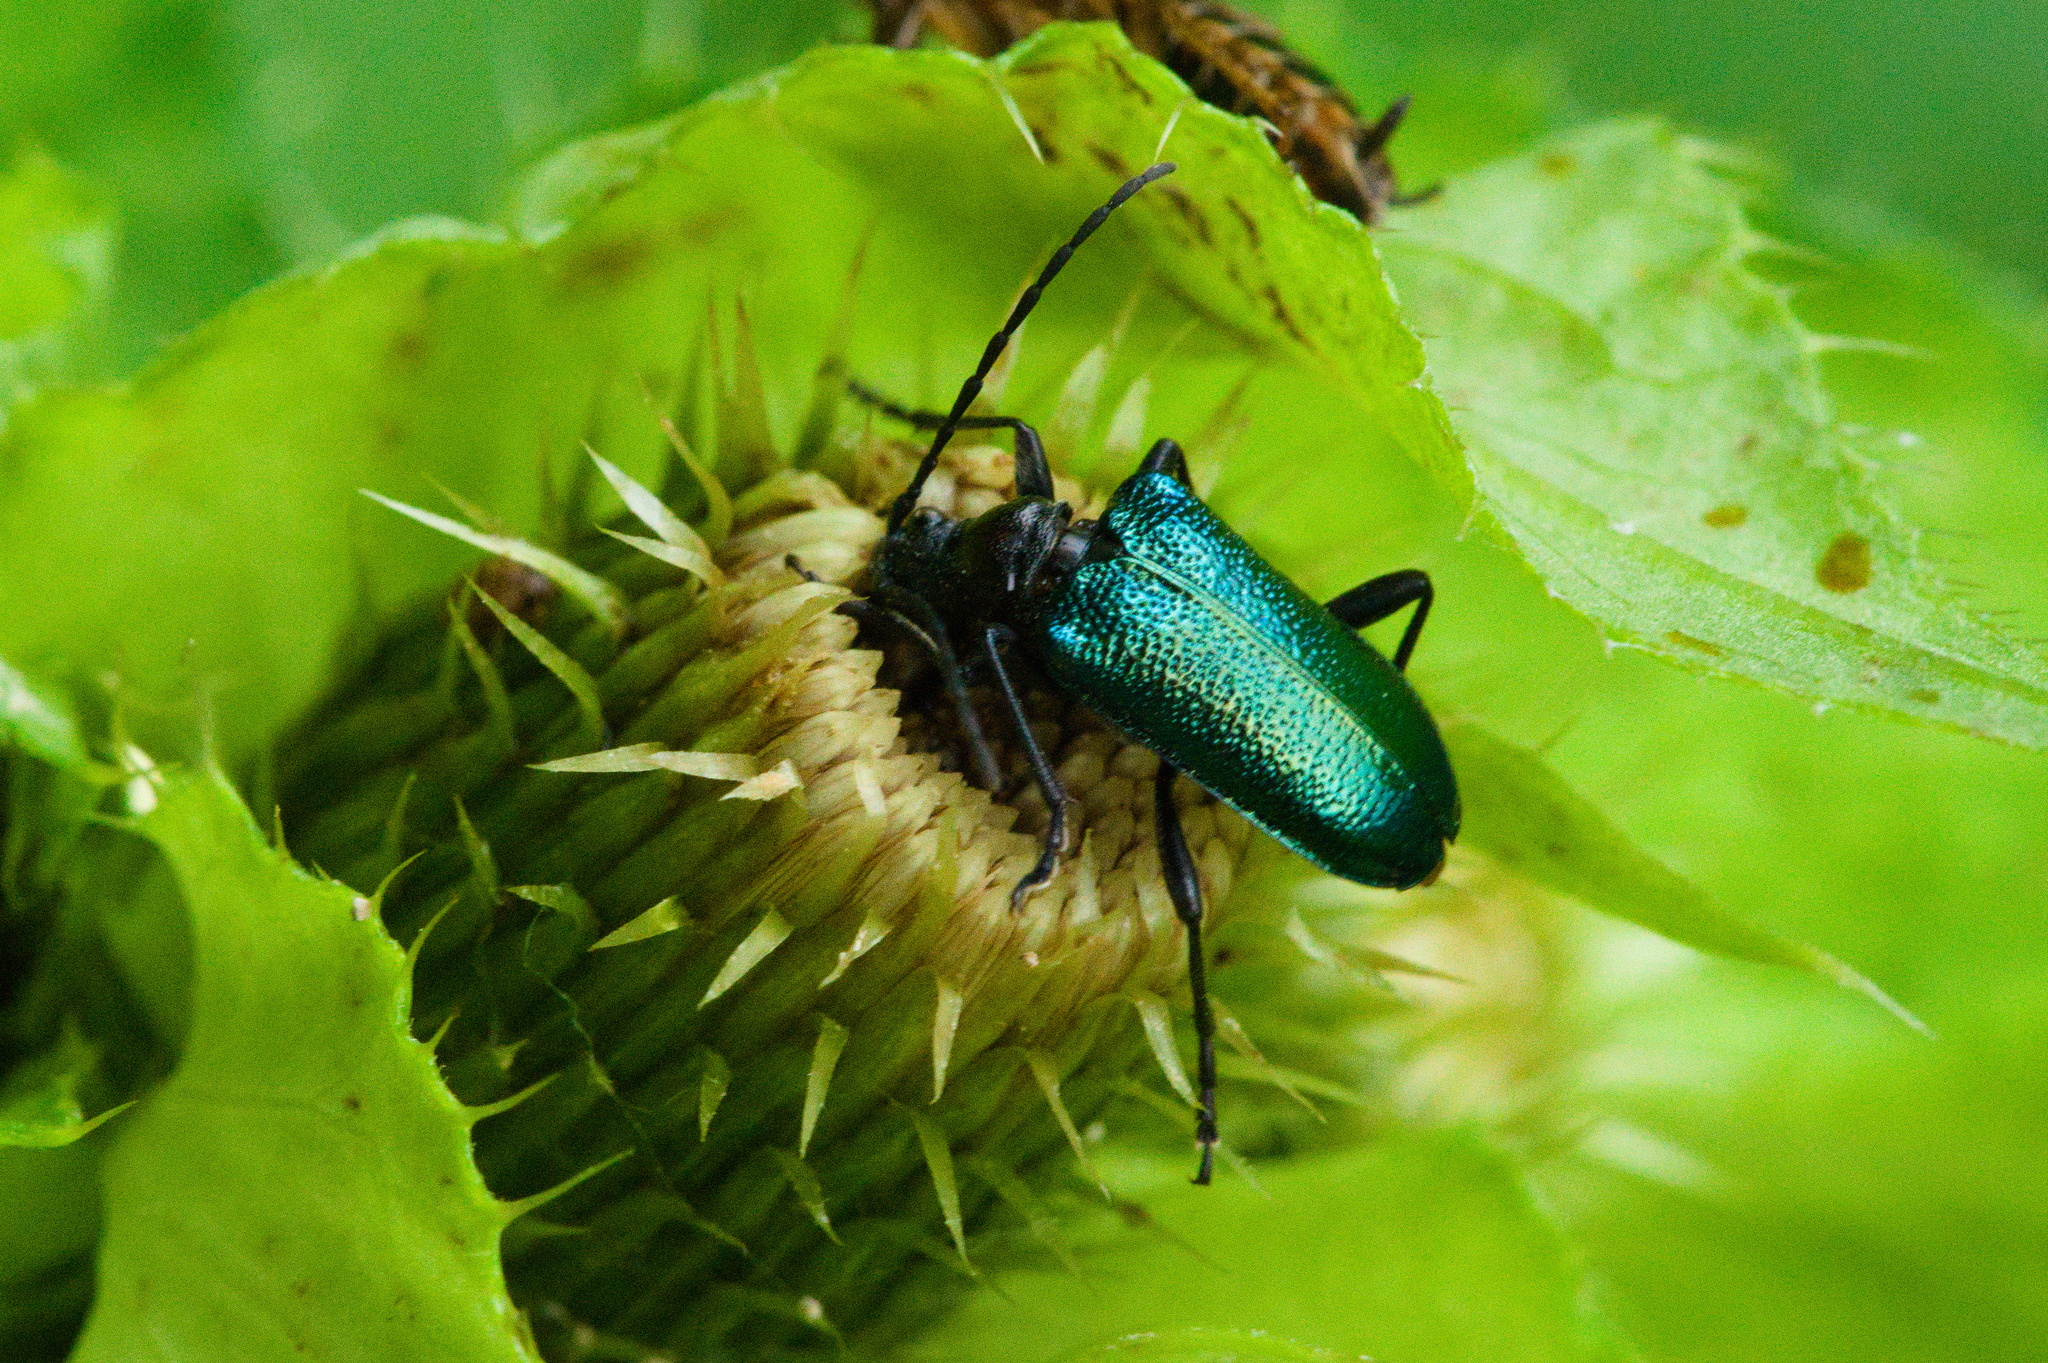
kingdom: Animalia
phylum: Arthropoda
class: Insecta
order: Coleoptera
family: Cerambycidae
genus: Gaurotes
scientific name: Gaurotes virginea
